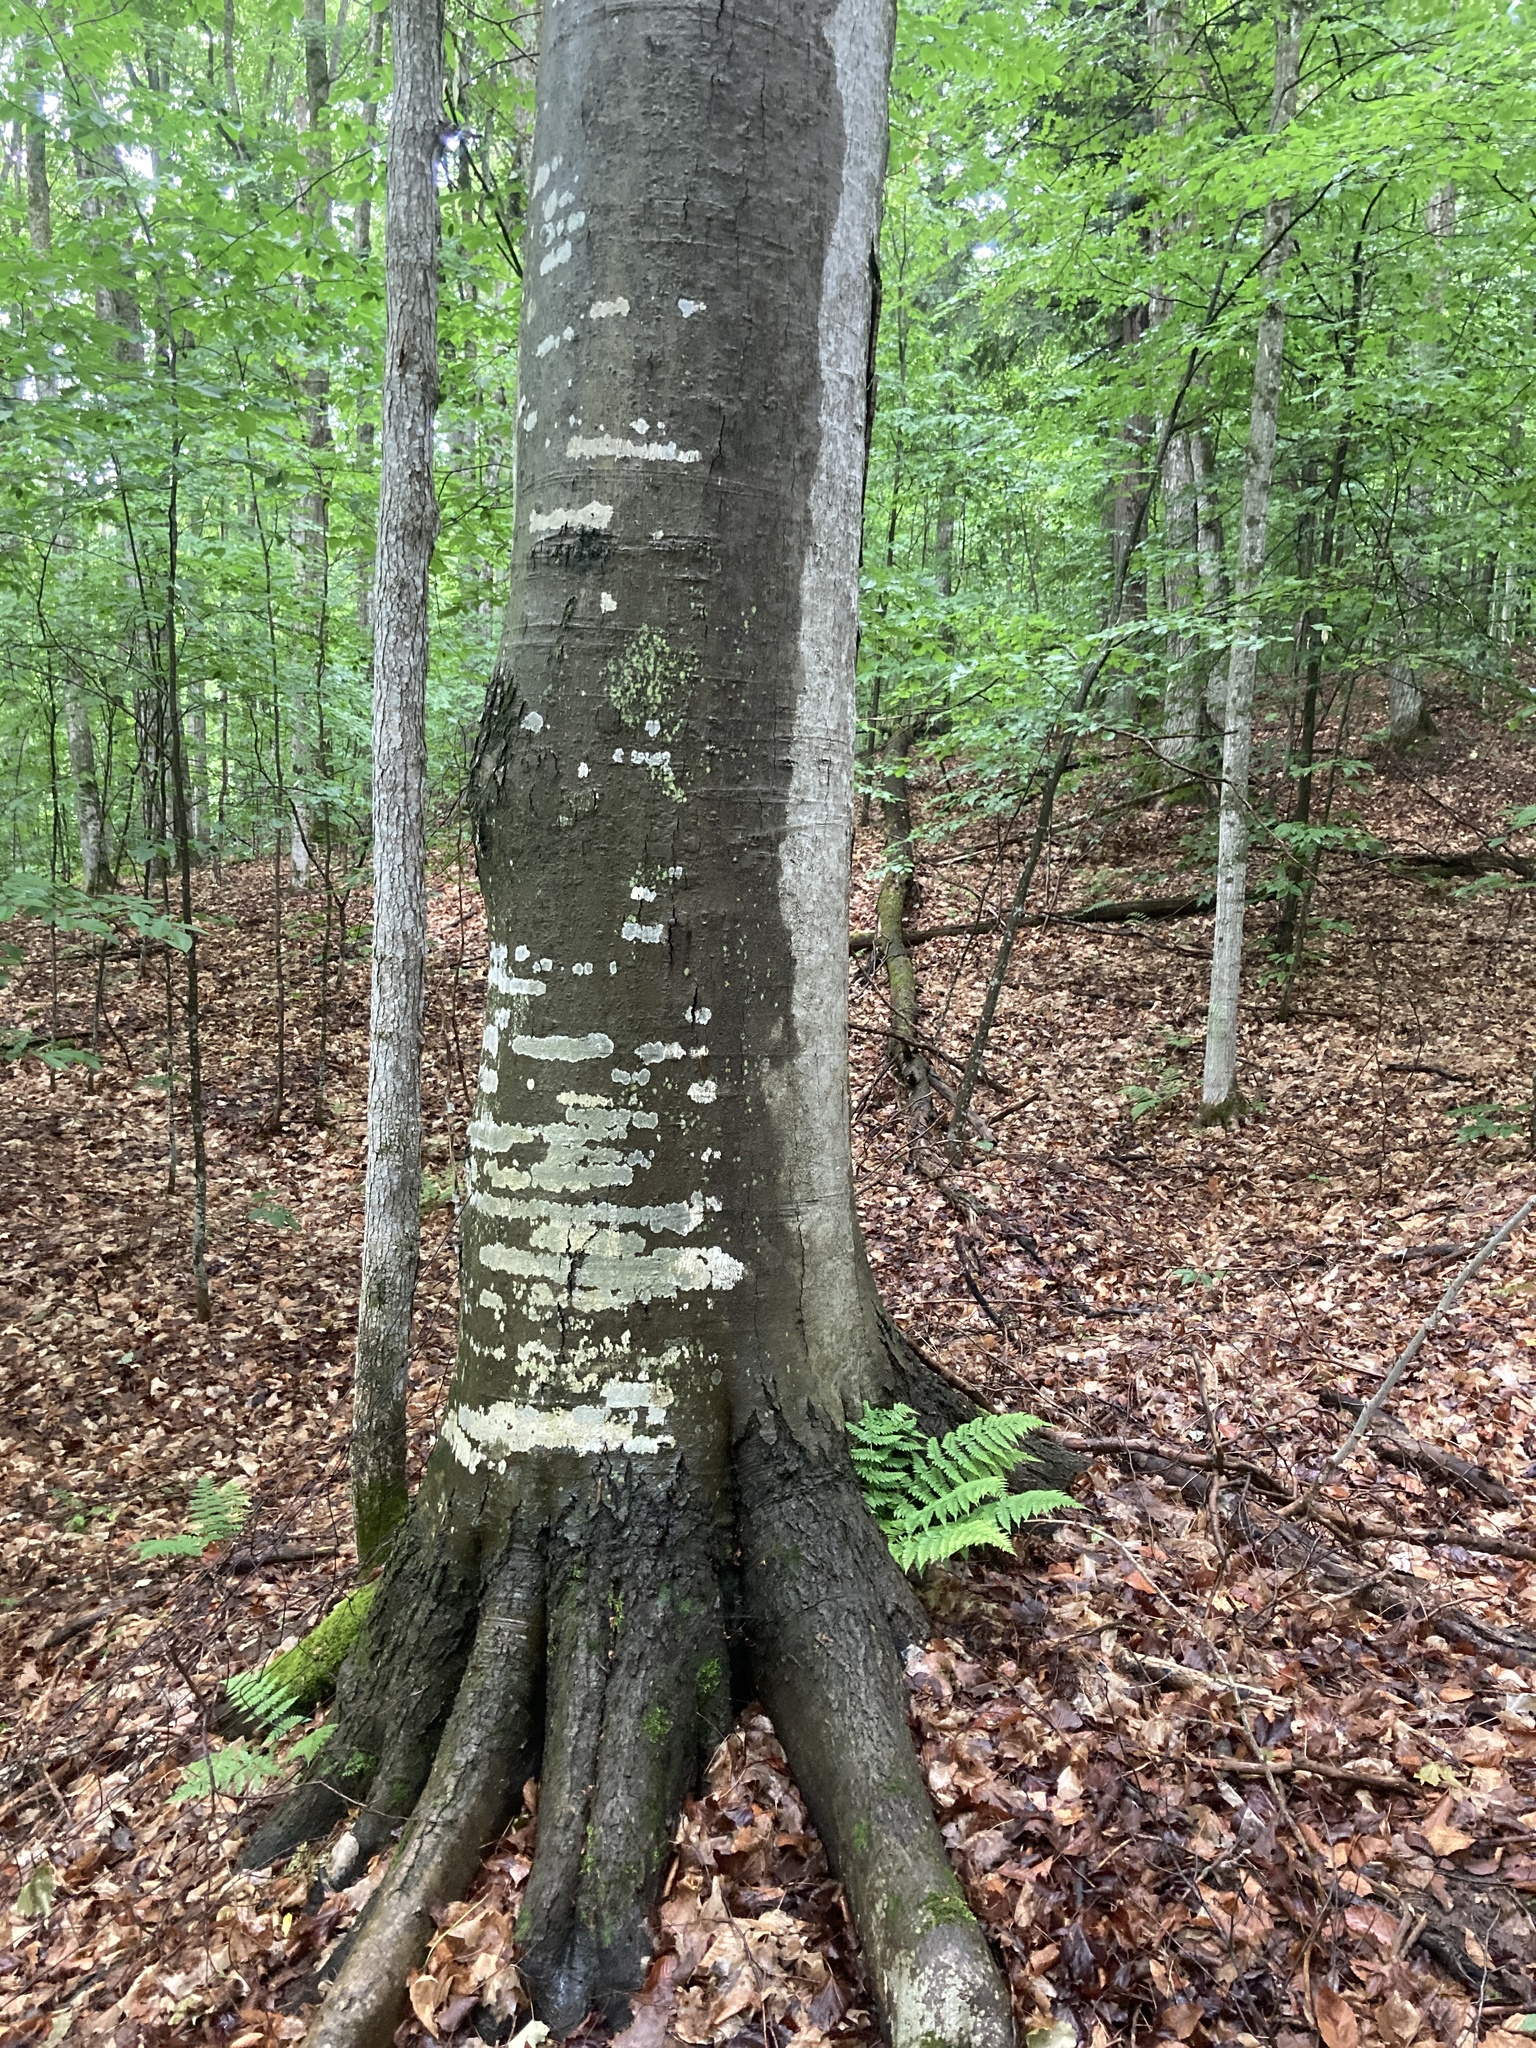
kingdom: Plantae
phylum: Tracheophyta
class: Magnoliopsida
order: Fagales
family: Fagaceae
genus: Fagus
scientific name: Fagus grandifolia
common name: American beech
